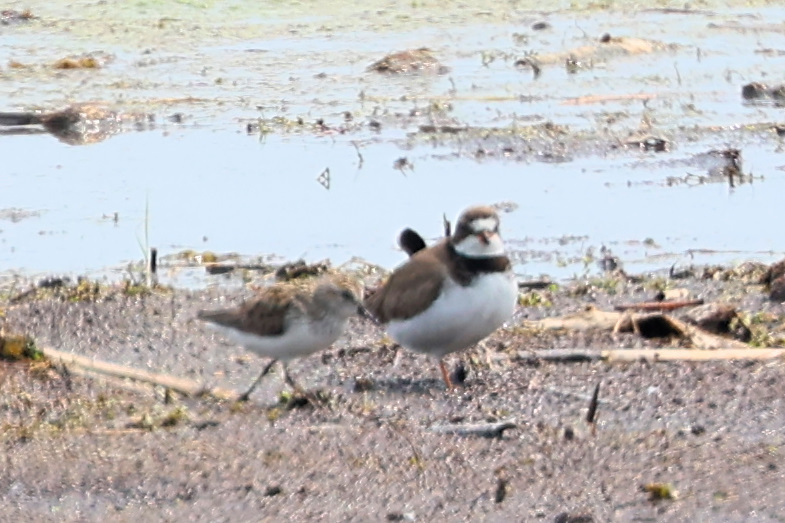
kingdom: Animalia
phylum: Chordata
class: Aves
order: Charadriiformes
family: Charadriidae
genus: Charadrius
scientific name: Charadrius semipalmatus
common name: Semipalmated plover
